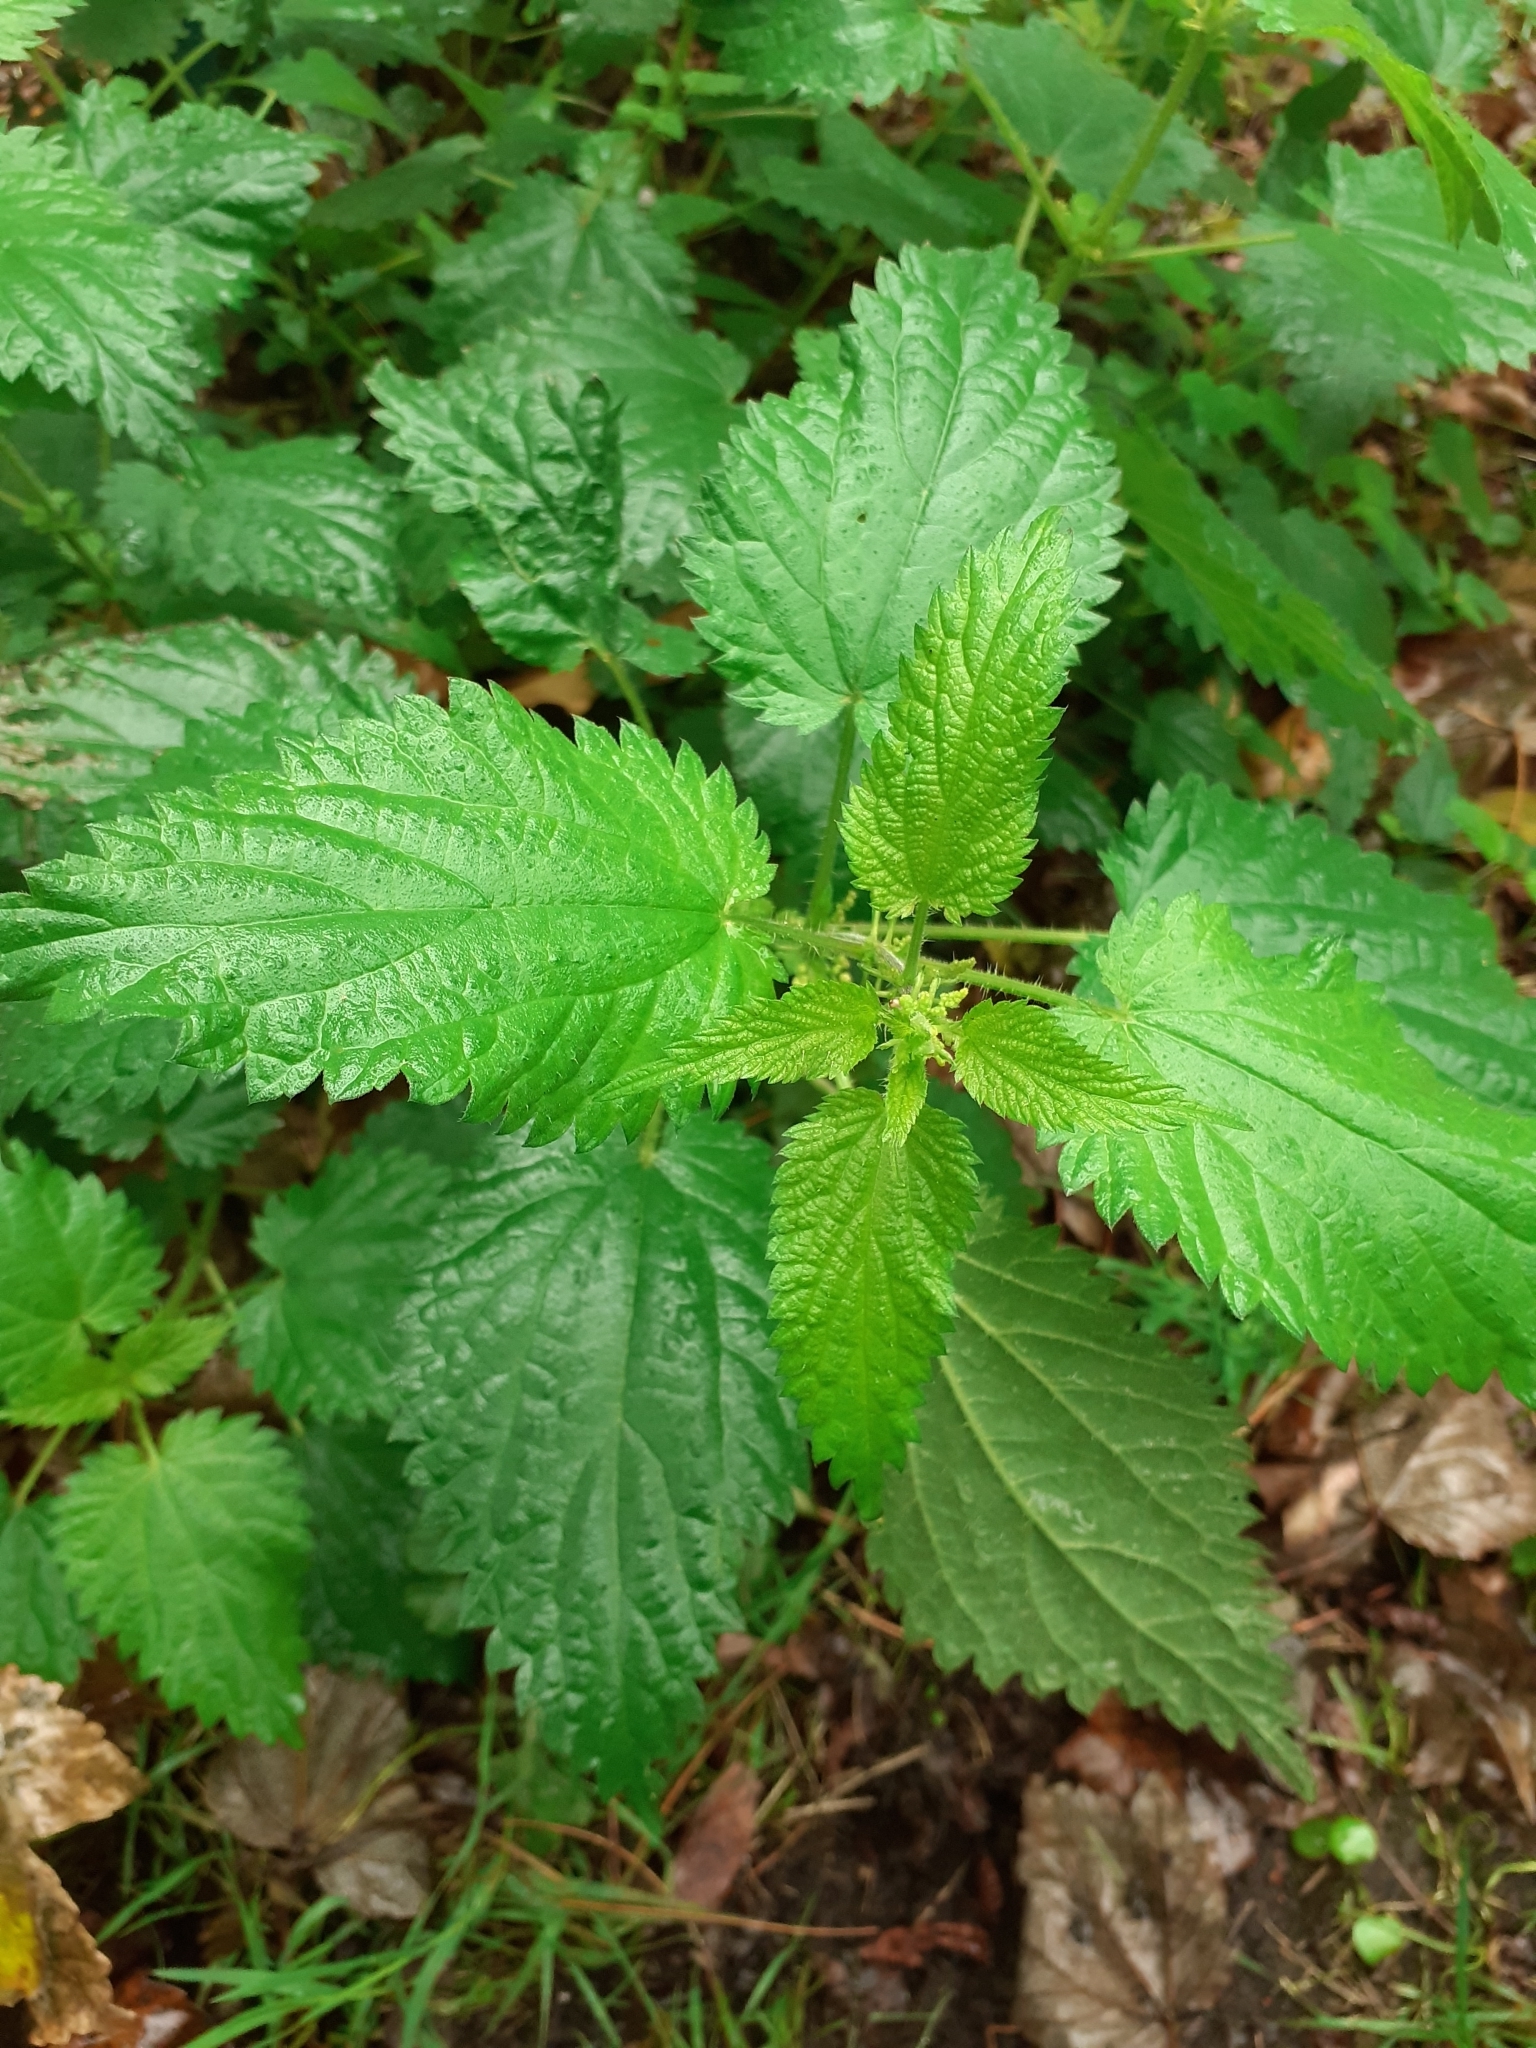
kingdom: Plantae
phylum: Tracheophyta
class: Magnoliopsida
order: Rosales
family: Urticaceae
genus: Urtica
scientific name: Urtica dioica
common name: Common nettle
